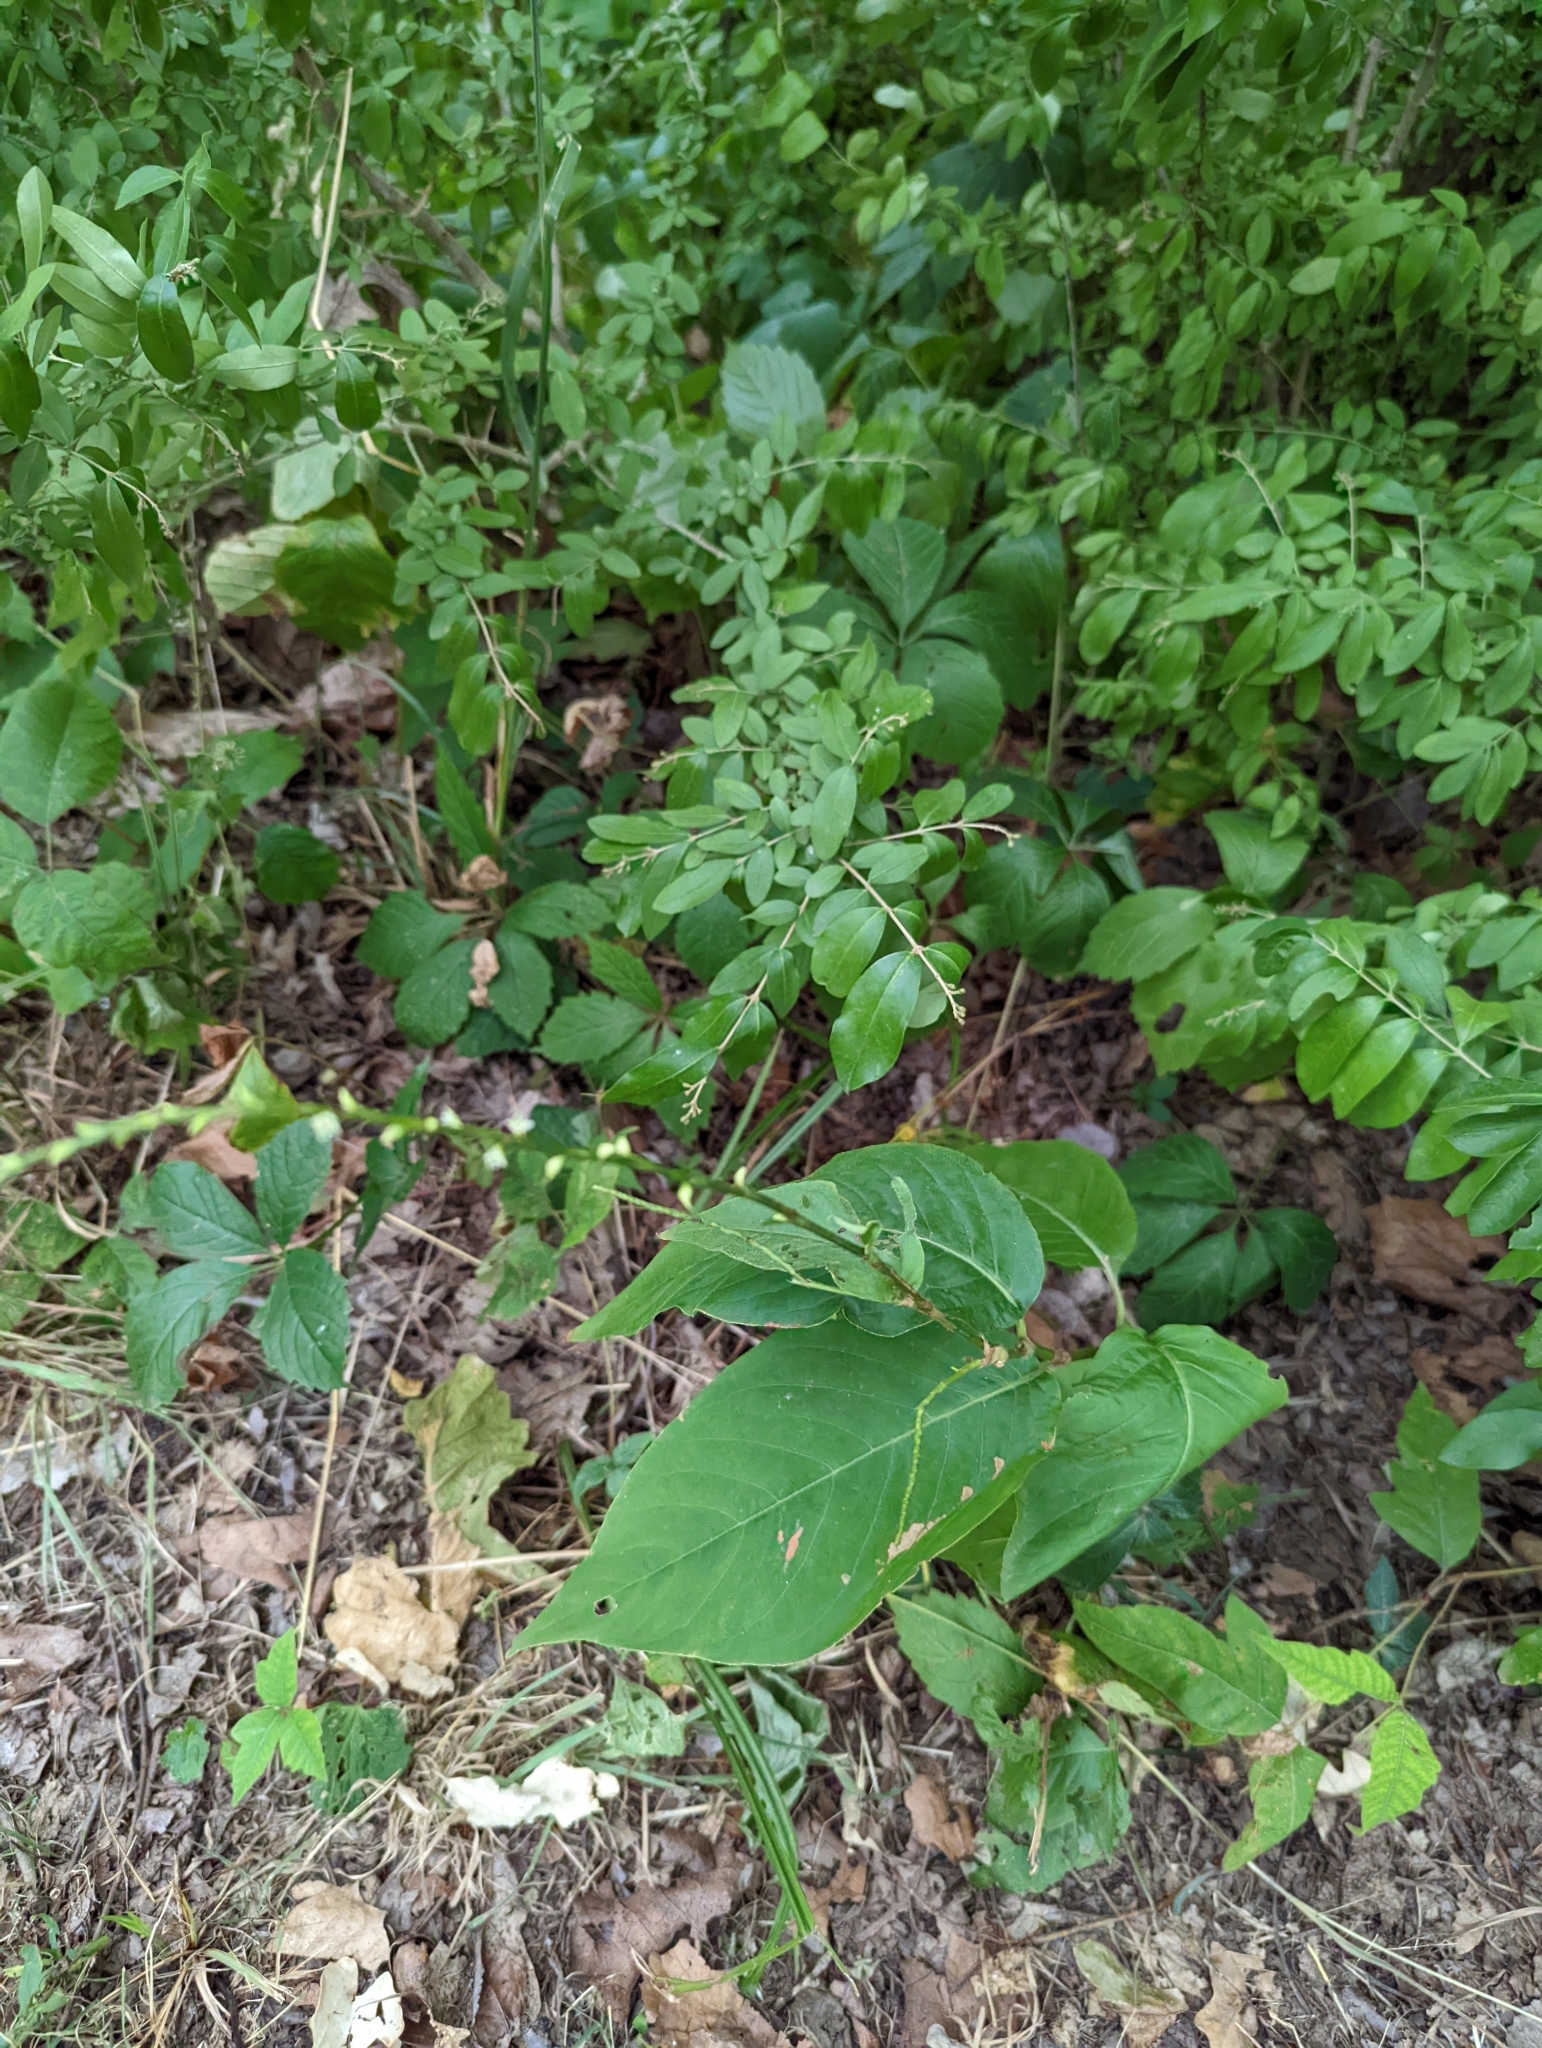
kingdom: Plantae
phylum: Tracheophyta
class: Magnoliopsida
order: Caryophyllales
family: Polygonaceae
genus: Persicaria
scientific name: Persicaria virginiana
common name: Jumpseed
